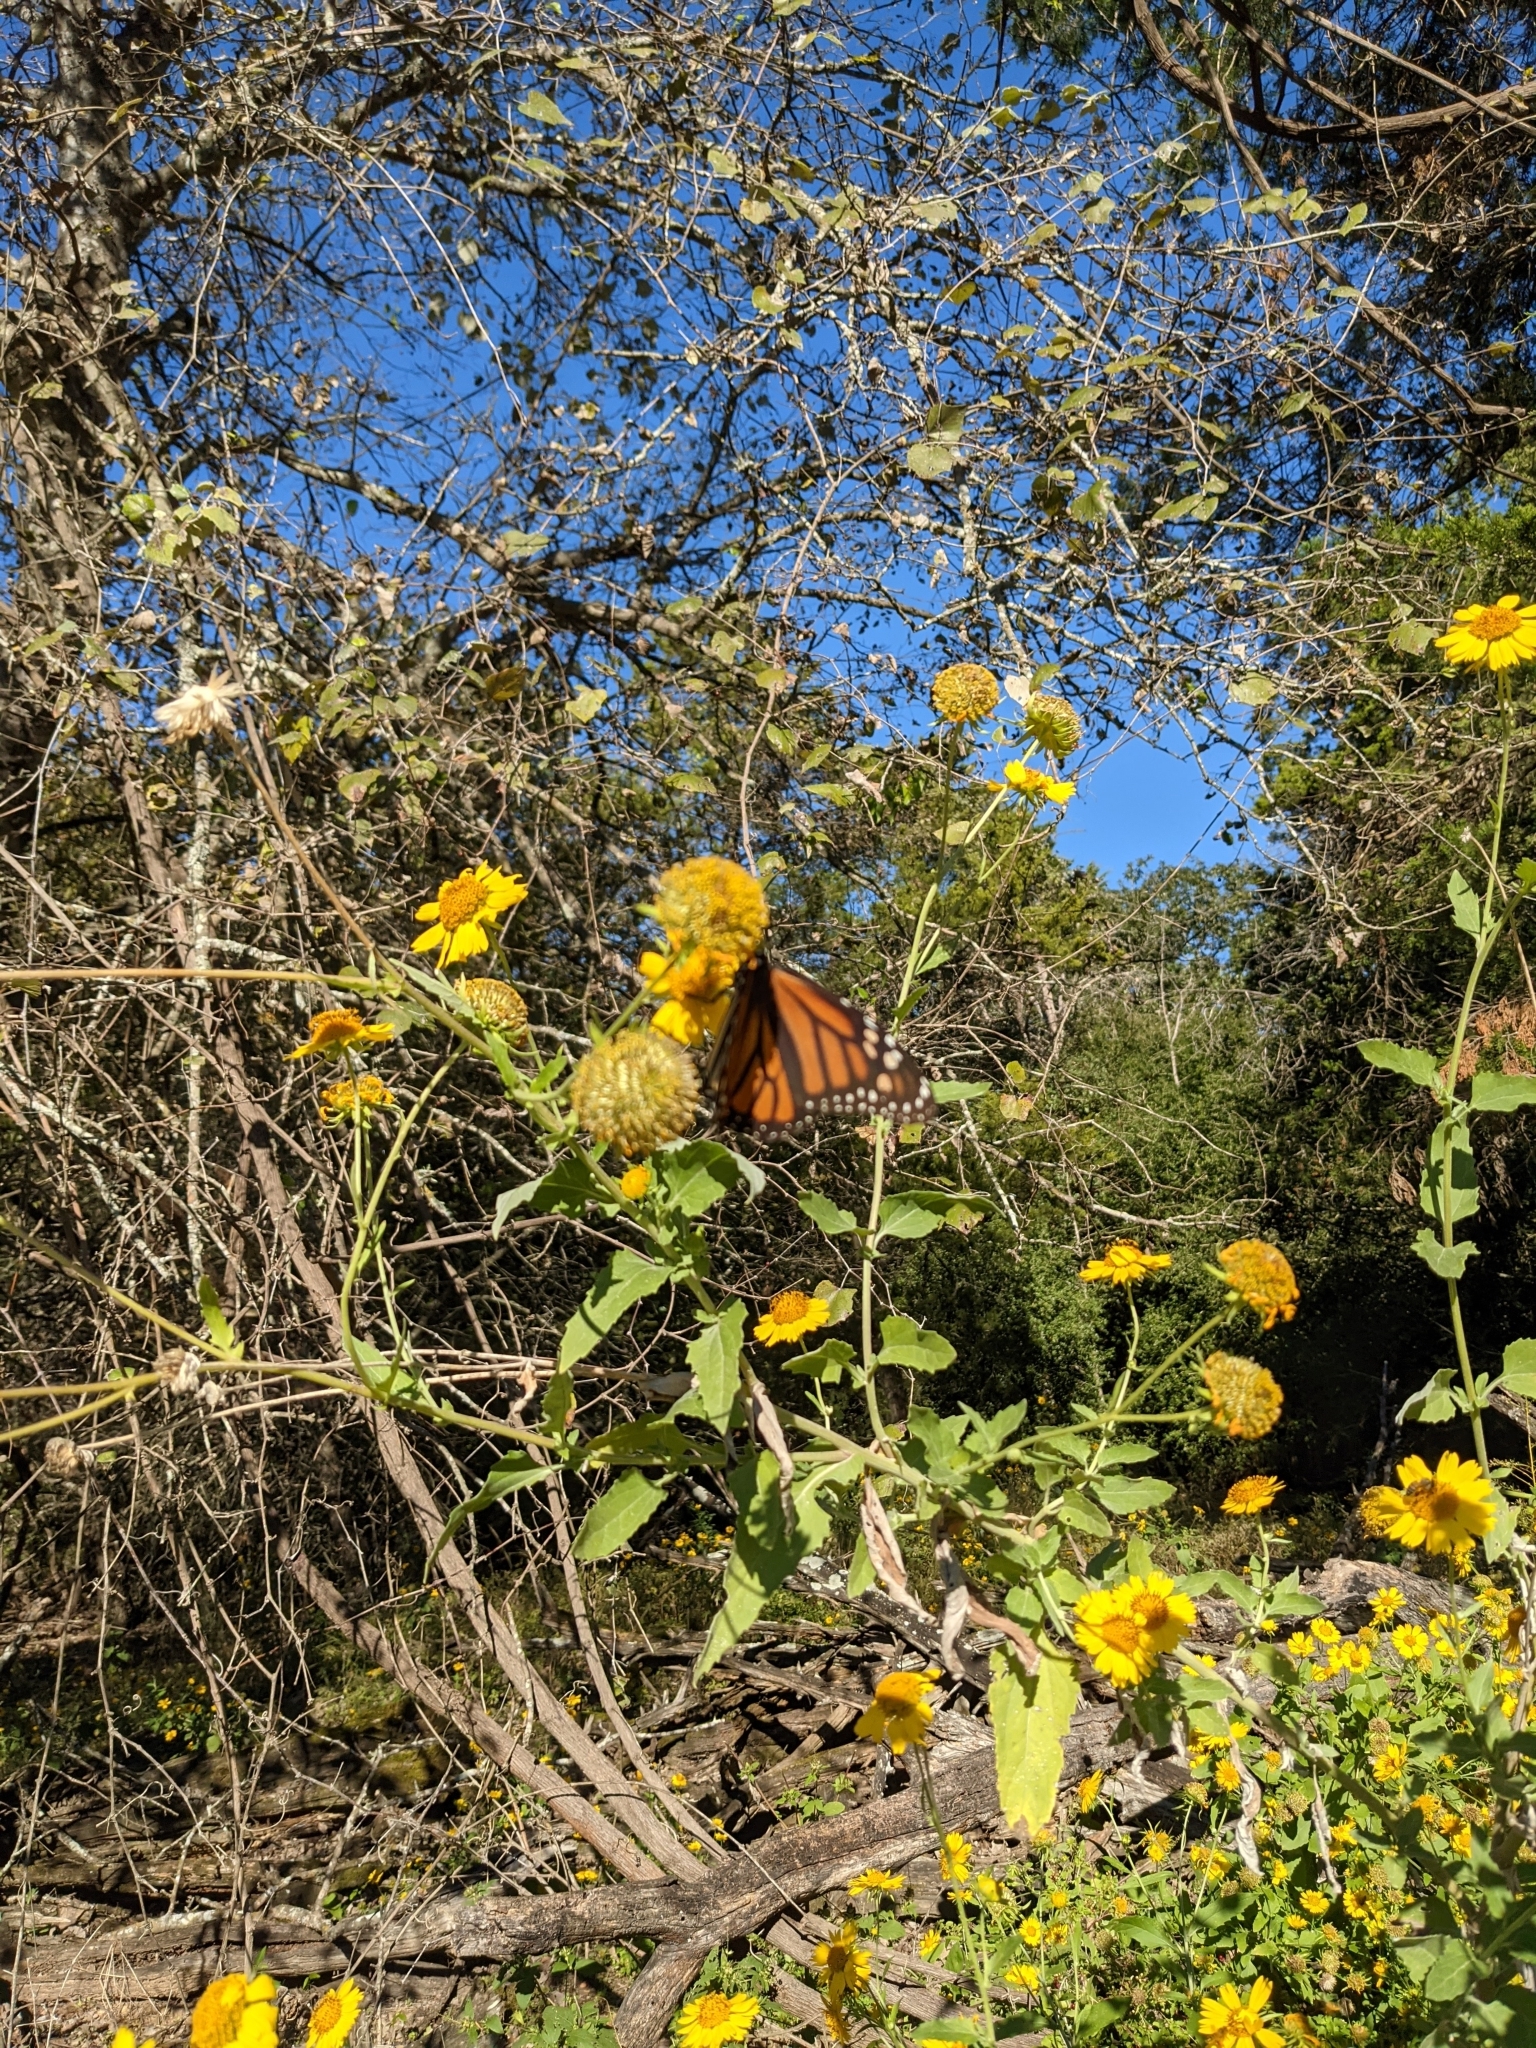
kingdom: Animalia
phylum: Arthropoda
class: Insecta
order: Lepidoptera
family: Nymphalidae
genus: Danaus
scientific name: Danaus plexippus
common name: Monarch
